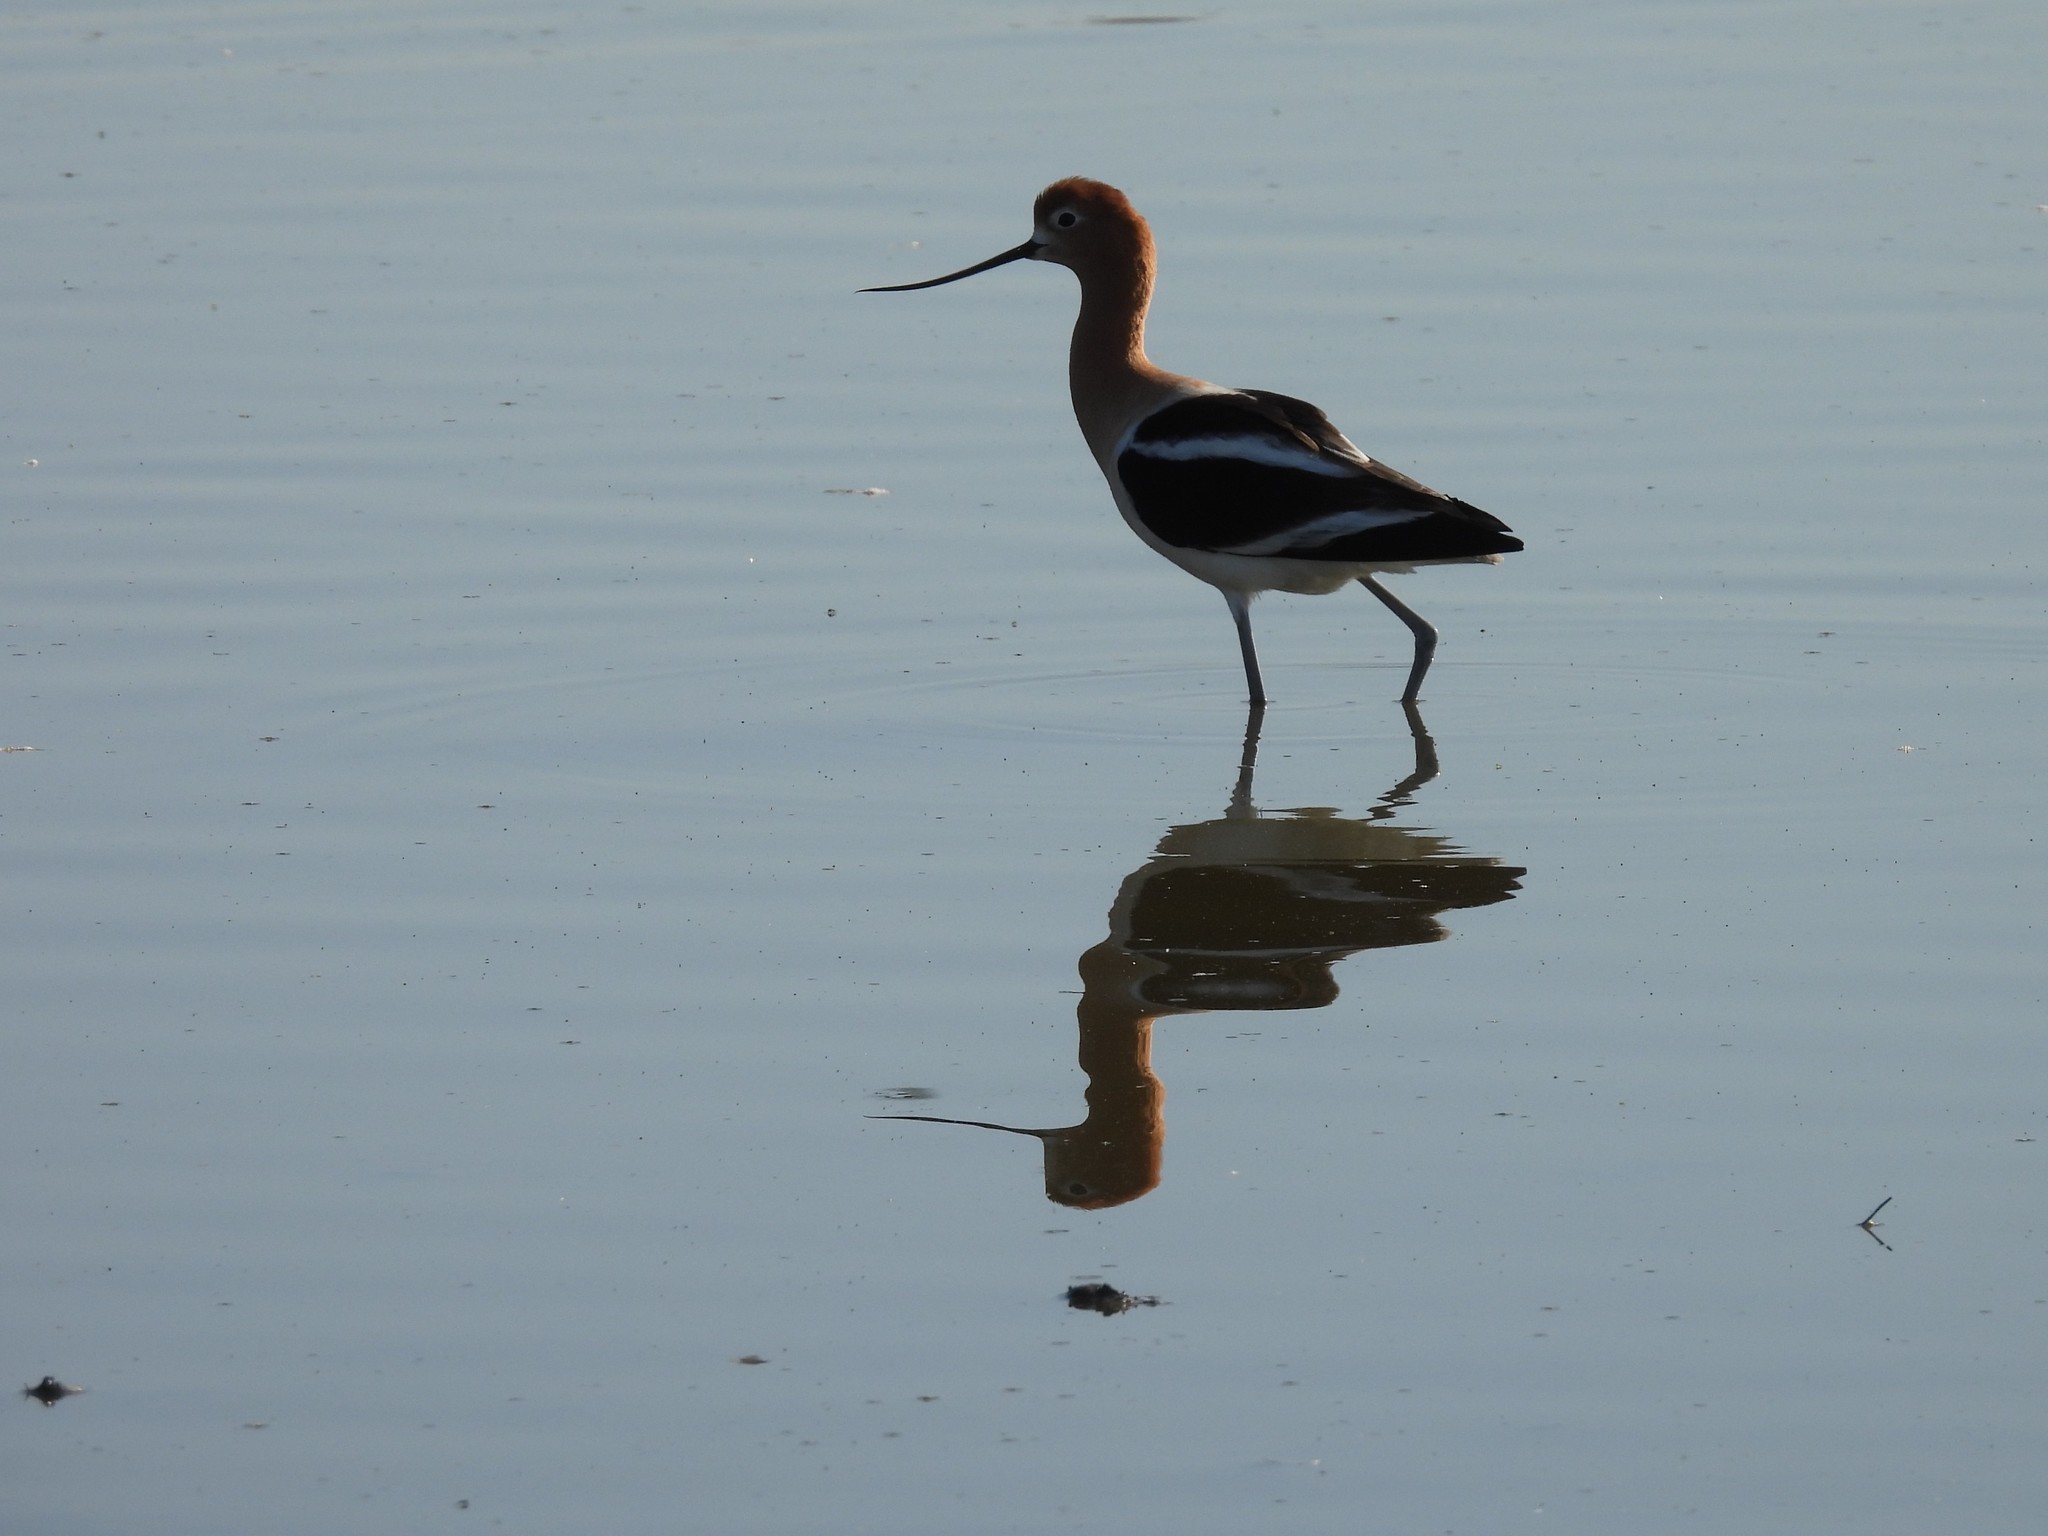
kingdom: Animalia
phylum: Chordata
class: Aves
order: Charadriiformes
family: Recurvirostridae
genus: Recurvirostra
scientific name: Recurvirostra americana
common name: American avocet
